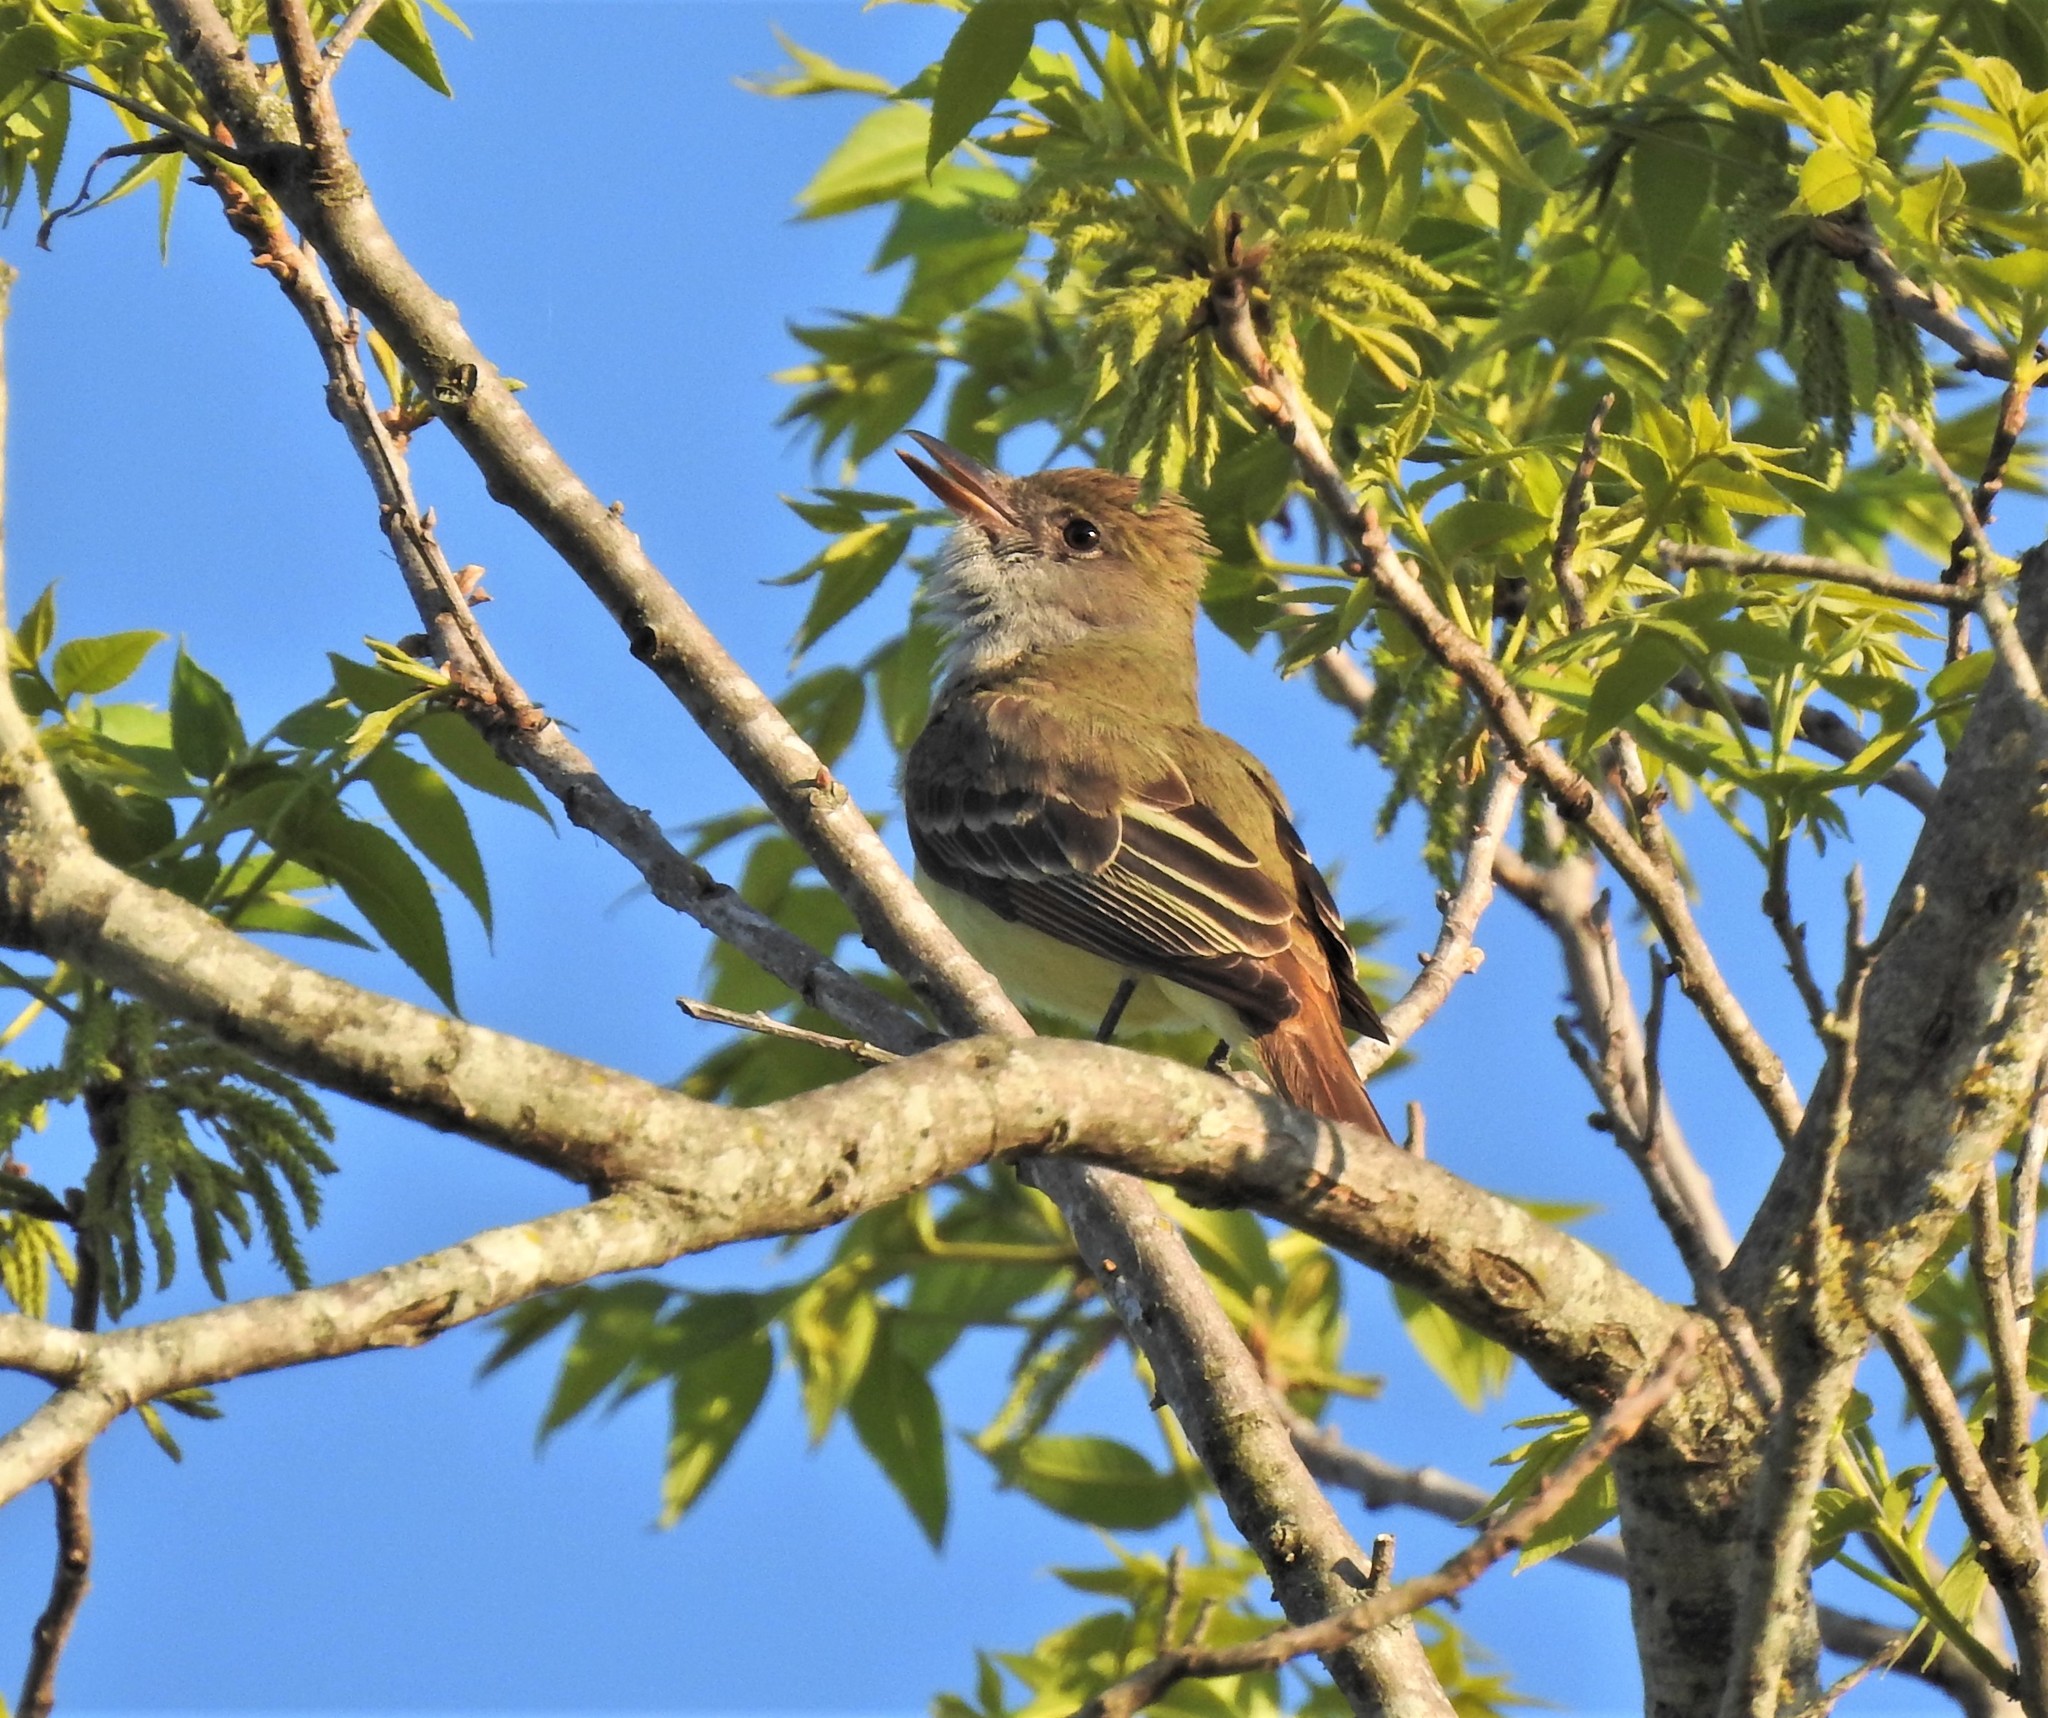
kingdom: Animalia
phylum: Chordata
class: Aves
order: Passeriformes
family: Tyrannidae
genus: Myiarchus
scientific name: Myiarchus crinitus
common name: Great crested flycatcher
